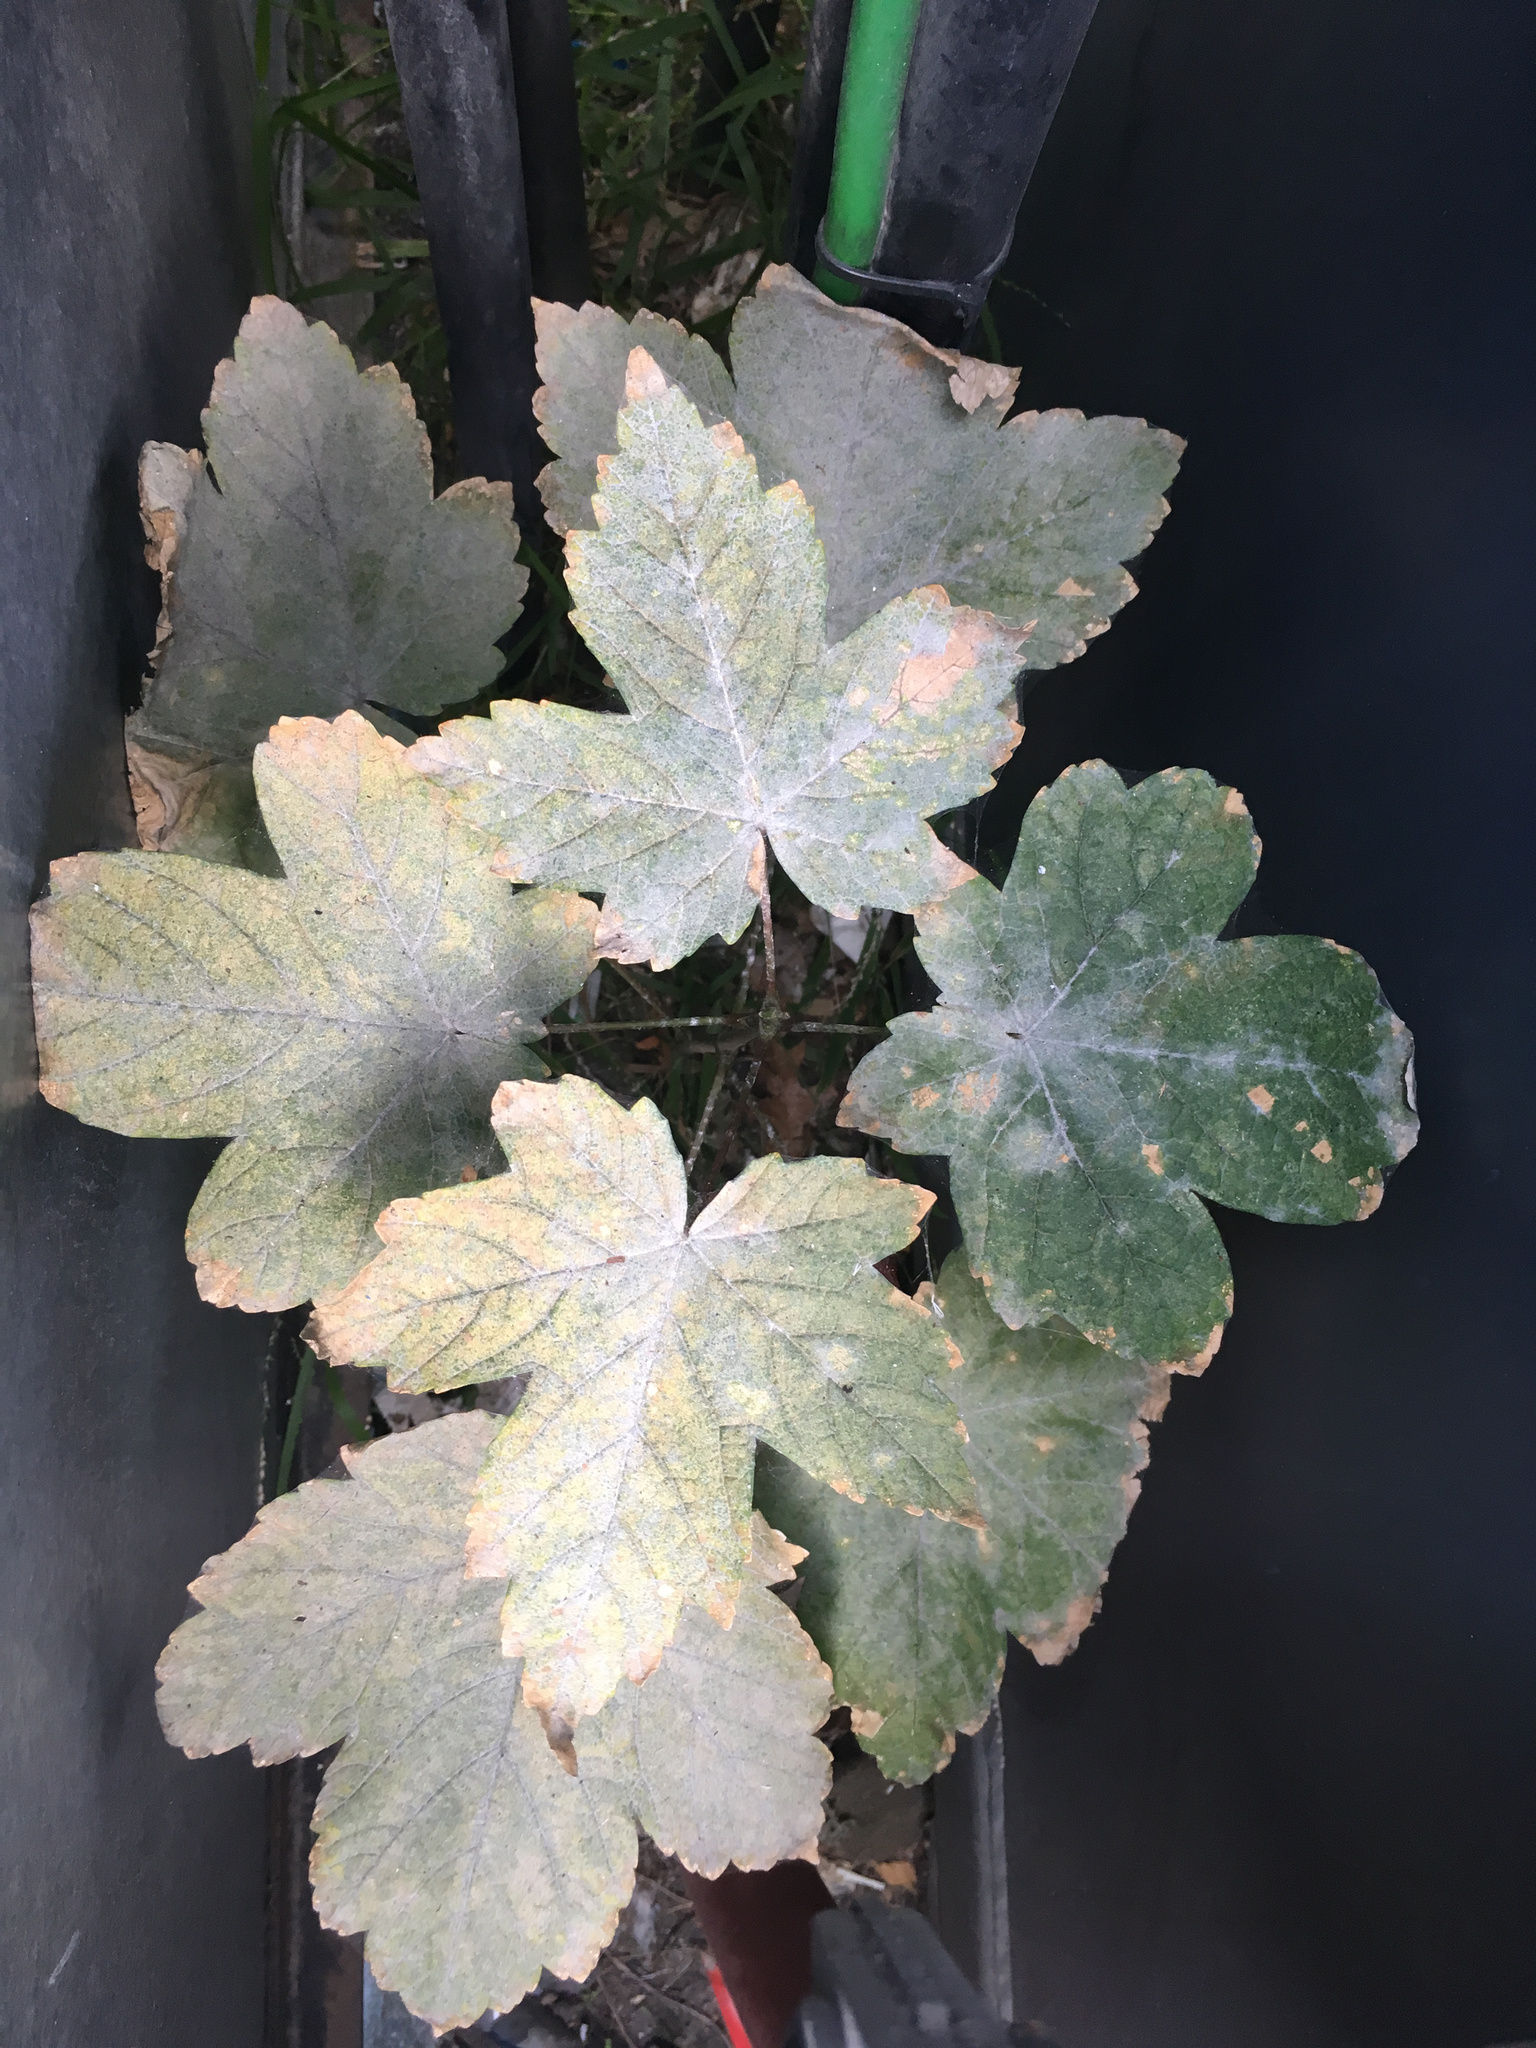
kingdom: Plantae
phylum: Tracheophyta
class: Magnoliopsida
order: Sapindales
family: Sapindaceae
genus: Acer
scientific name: Acer pseudoplatanus
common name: Sycamore
